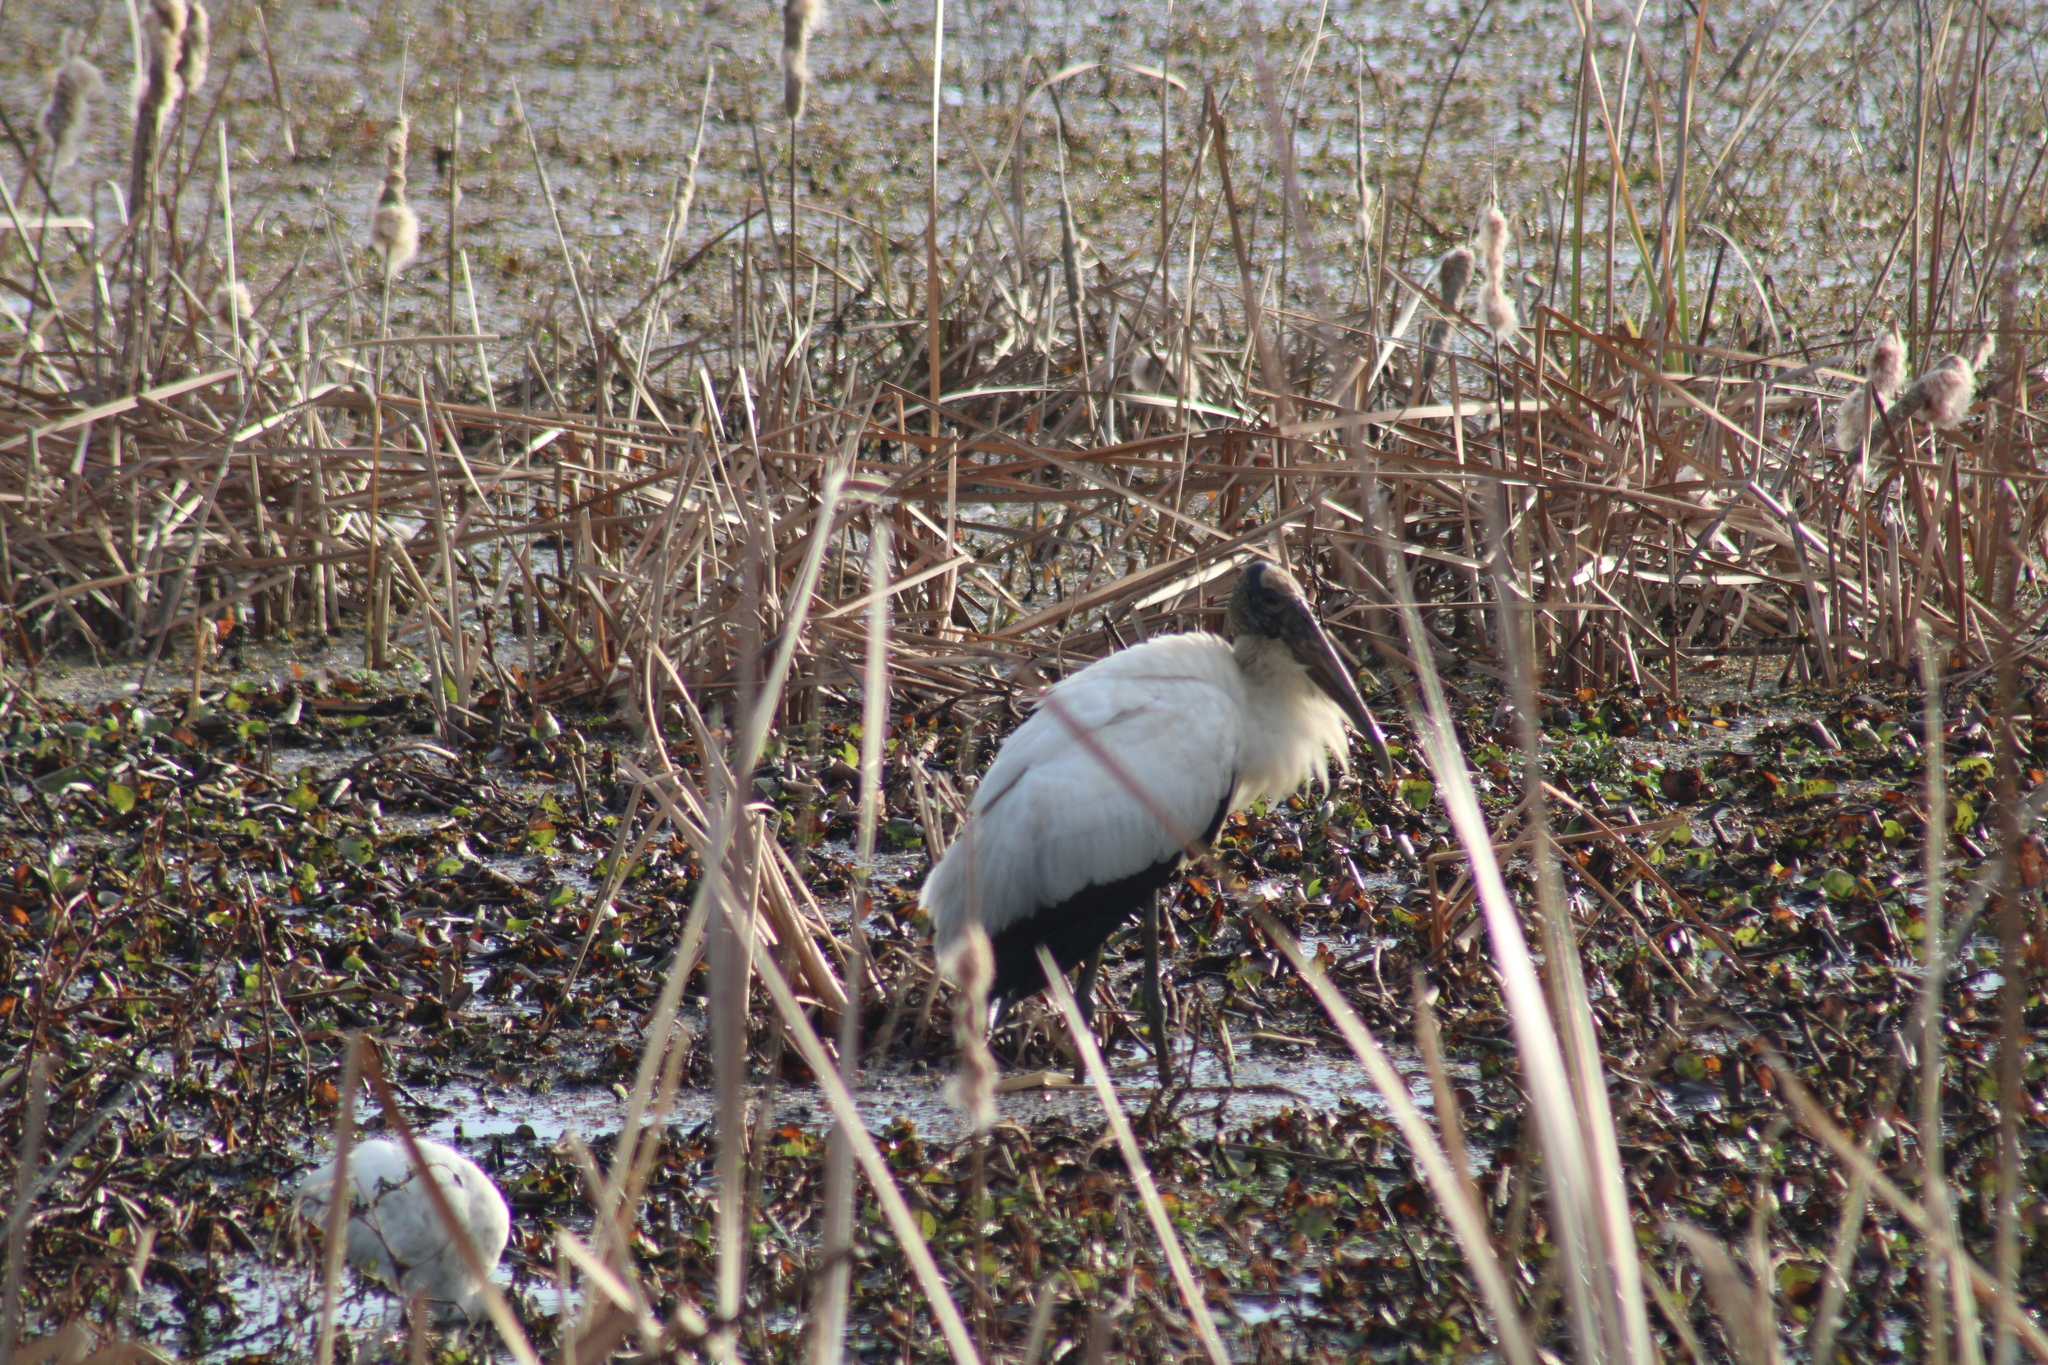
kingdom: Animalia
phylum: Chordata
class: Aves
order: Ciconiiformes
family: Ciconiidae
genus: Mycteria
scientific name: Mycteria americana
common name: Wood stork
